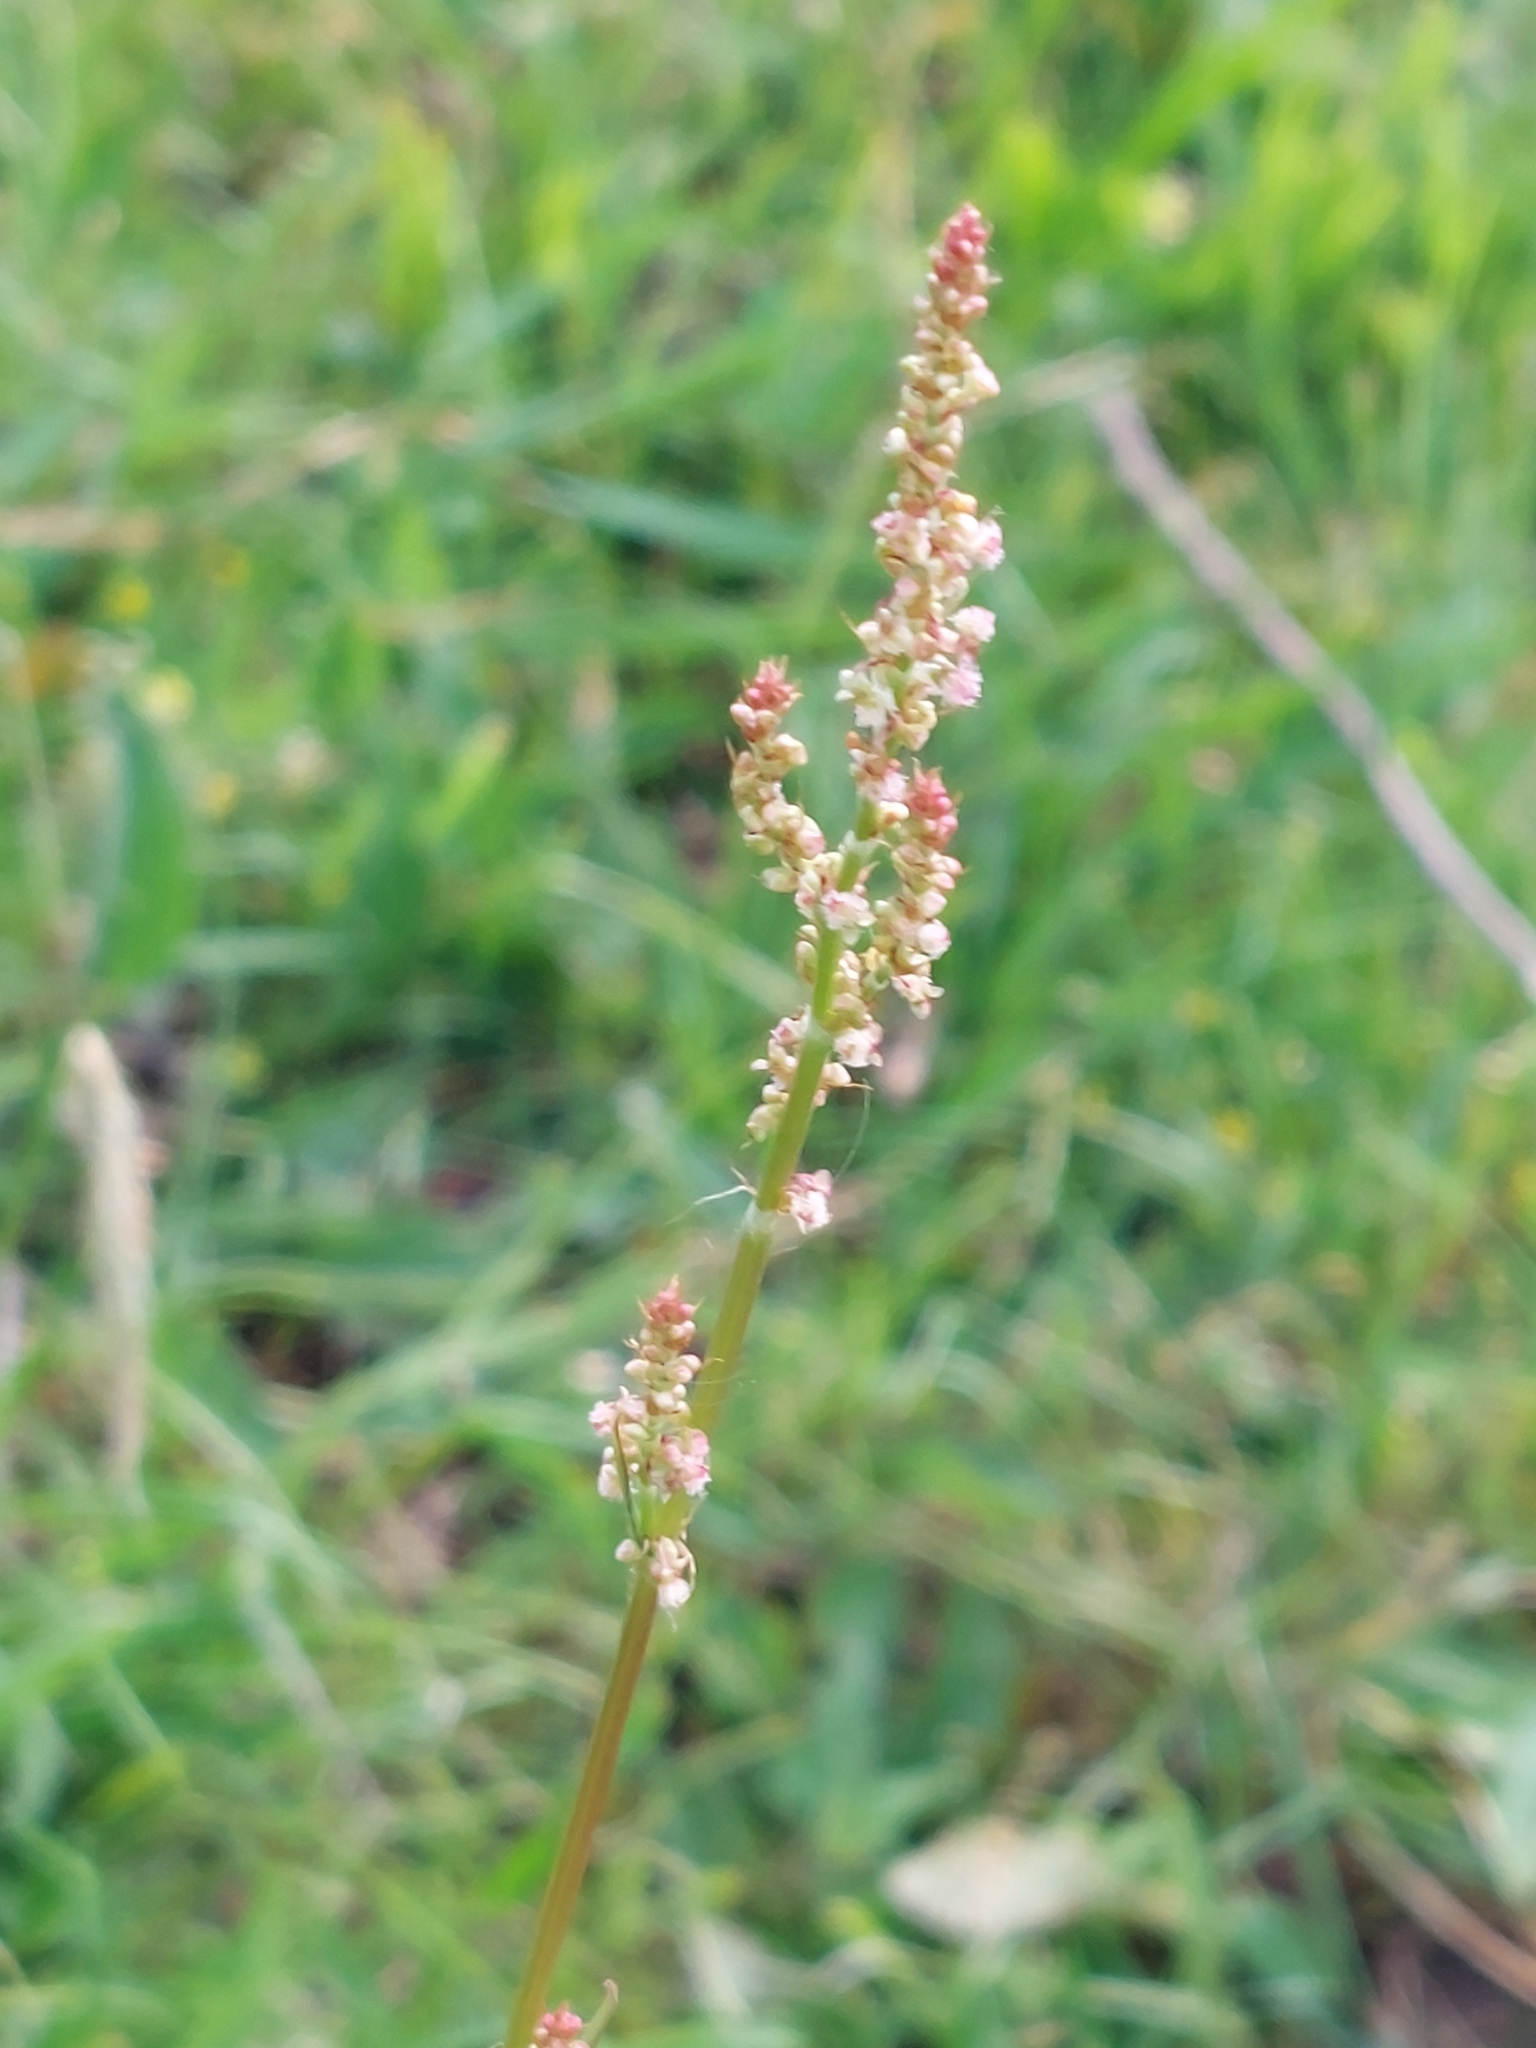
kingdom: Plantae
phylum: Tracheophyta
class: Magnoliopsida
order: Caryophyllales
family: Polygonaceae
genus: Rumex
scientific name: Rumex acetosa
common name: Garden sorrel
